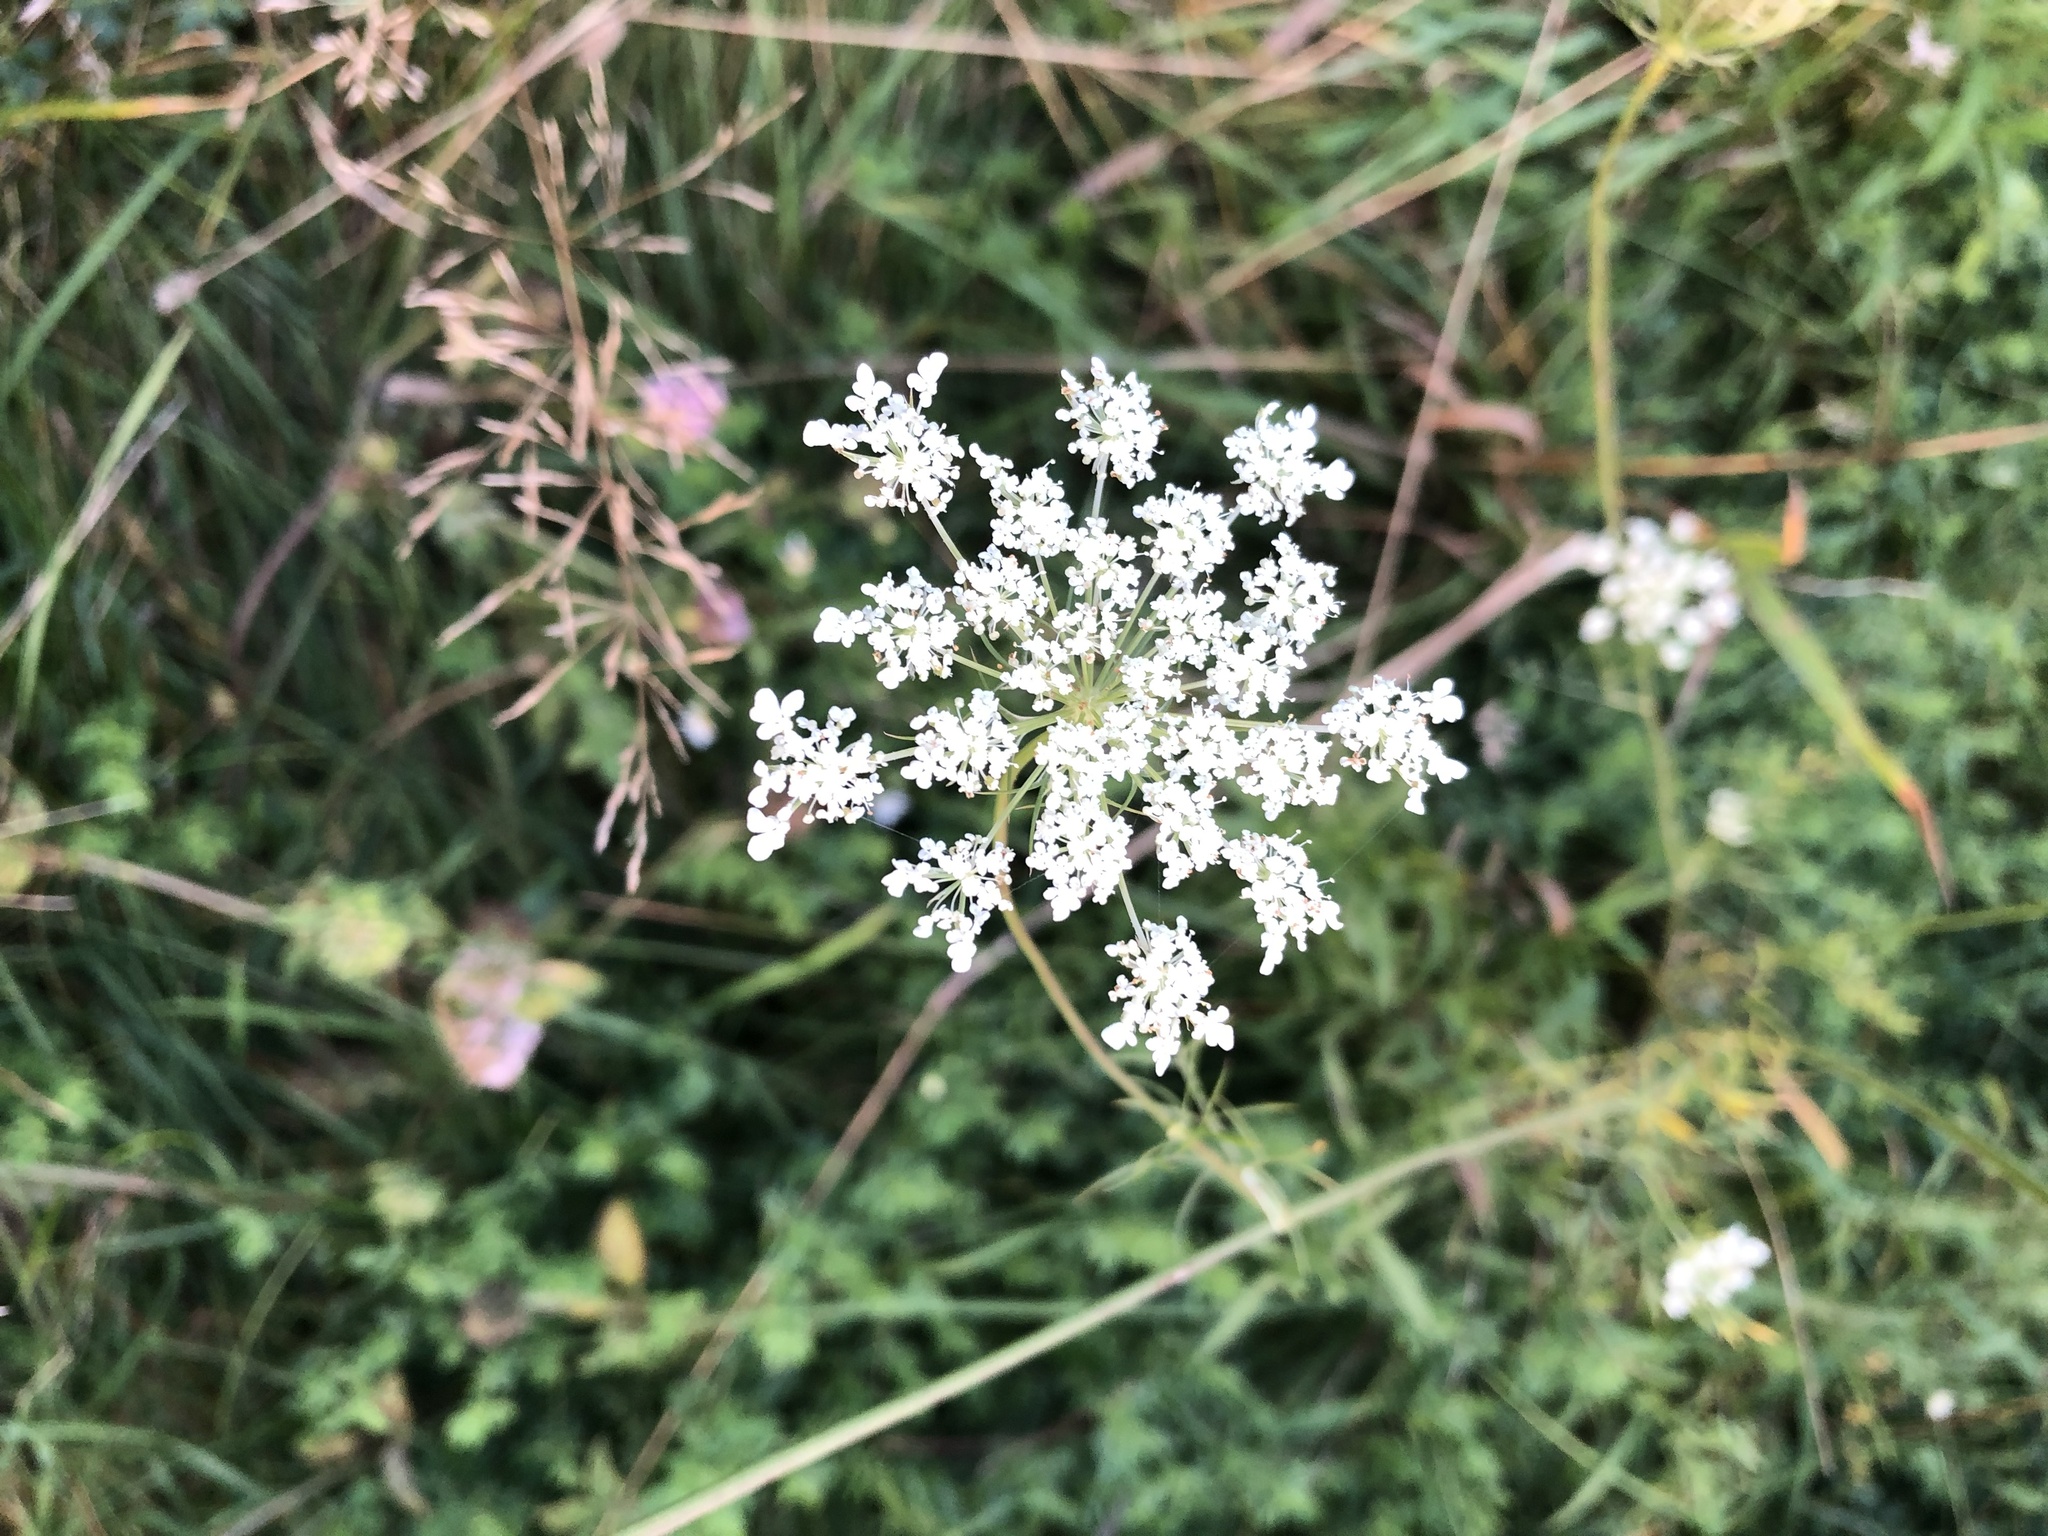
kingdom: Plantae
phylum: Tracheophyta
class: Magnoliopsida
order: Apiales
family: Apiaceae
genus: Daucus
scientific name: Daucus carota
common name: Wild carrot
